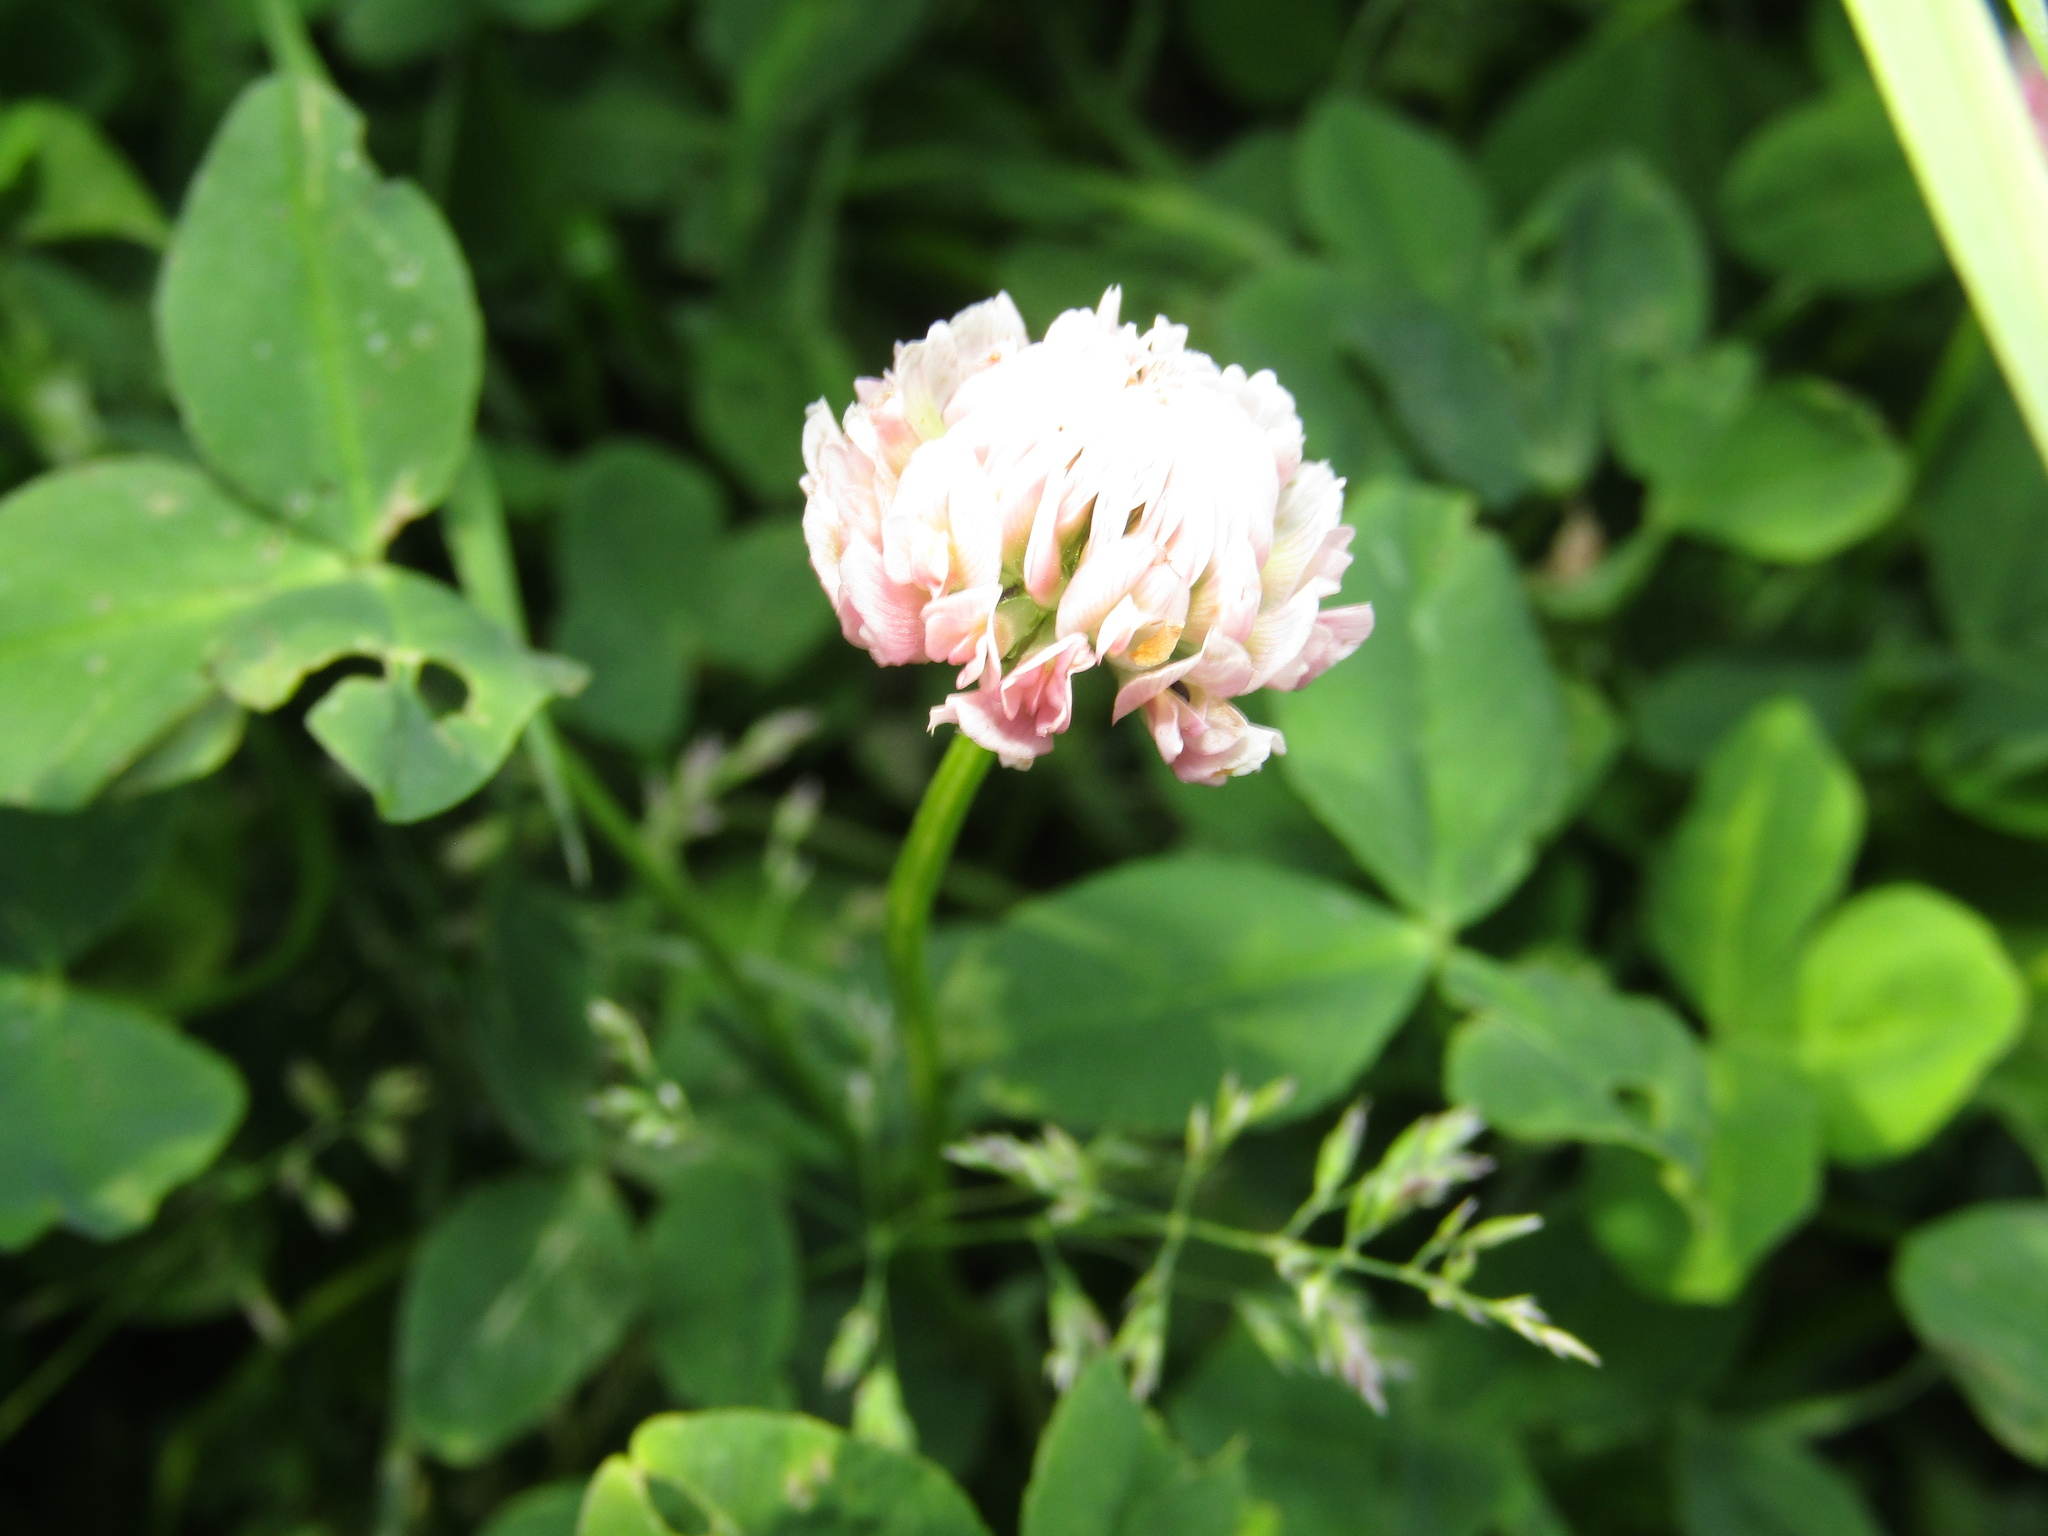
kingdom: Plantae
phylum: Tracheophyta
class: Magnoliopsida
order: Fabales
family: Fabaceae
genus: Trifolium
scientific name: Trifolium hybridum
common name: Alsike clover
